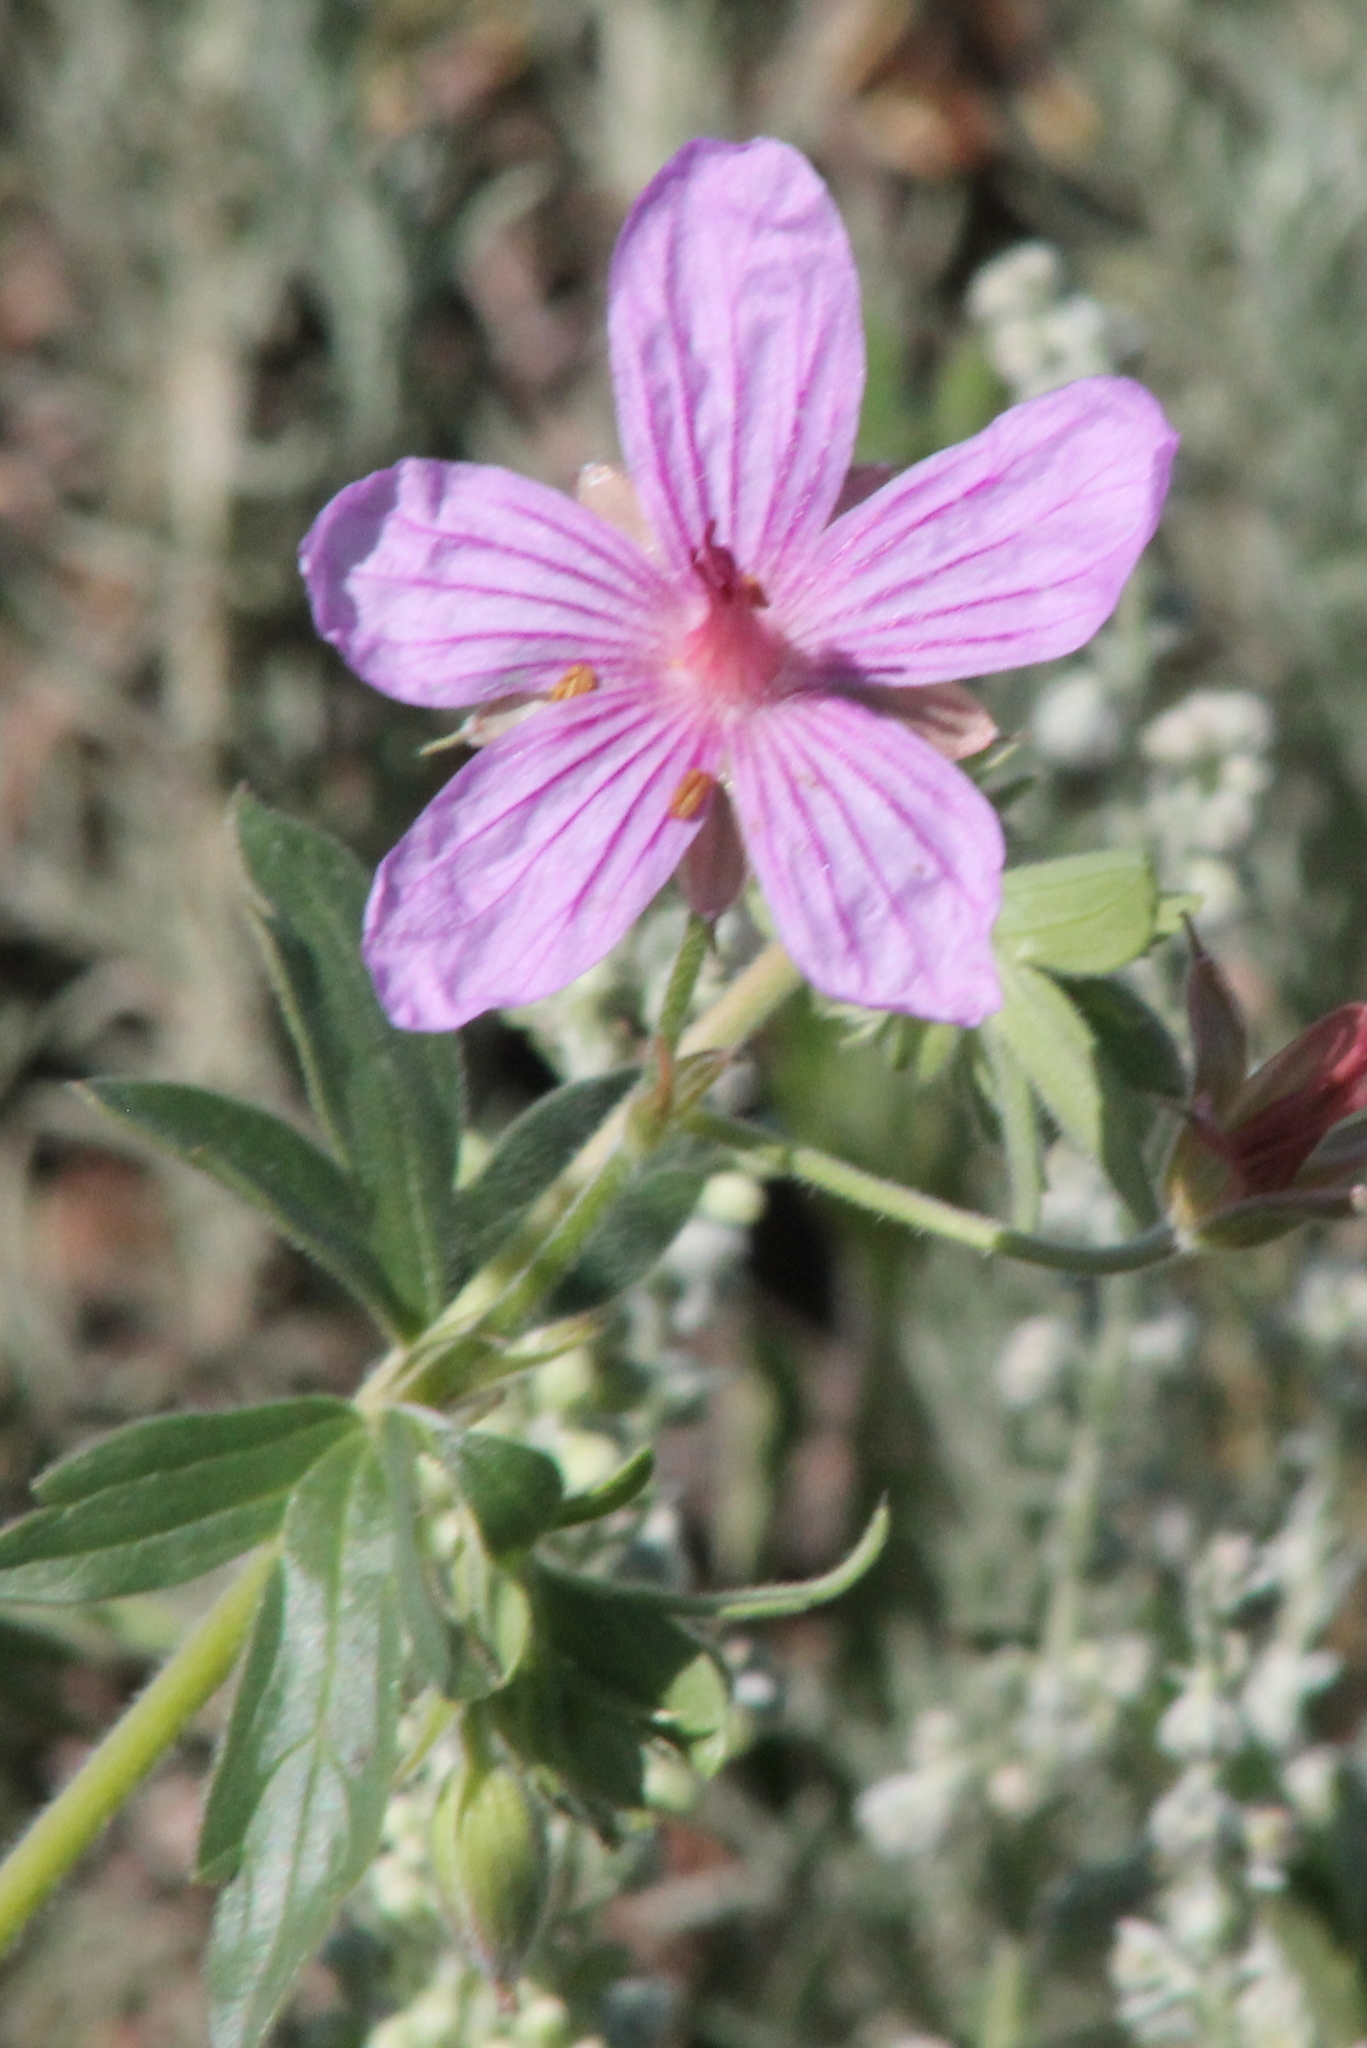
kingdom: Plantae
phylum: Tracheophyta
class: Magnoliopsida
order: Geraniales
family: Geraniaceae
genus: Geranium
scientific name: Geranium viscosissimum
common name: Purple geranium
